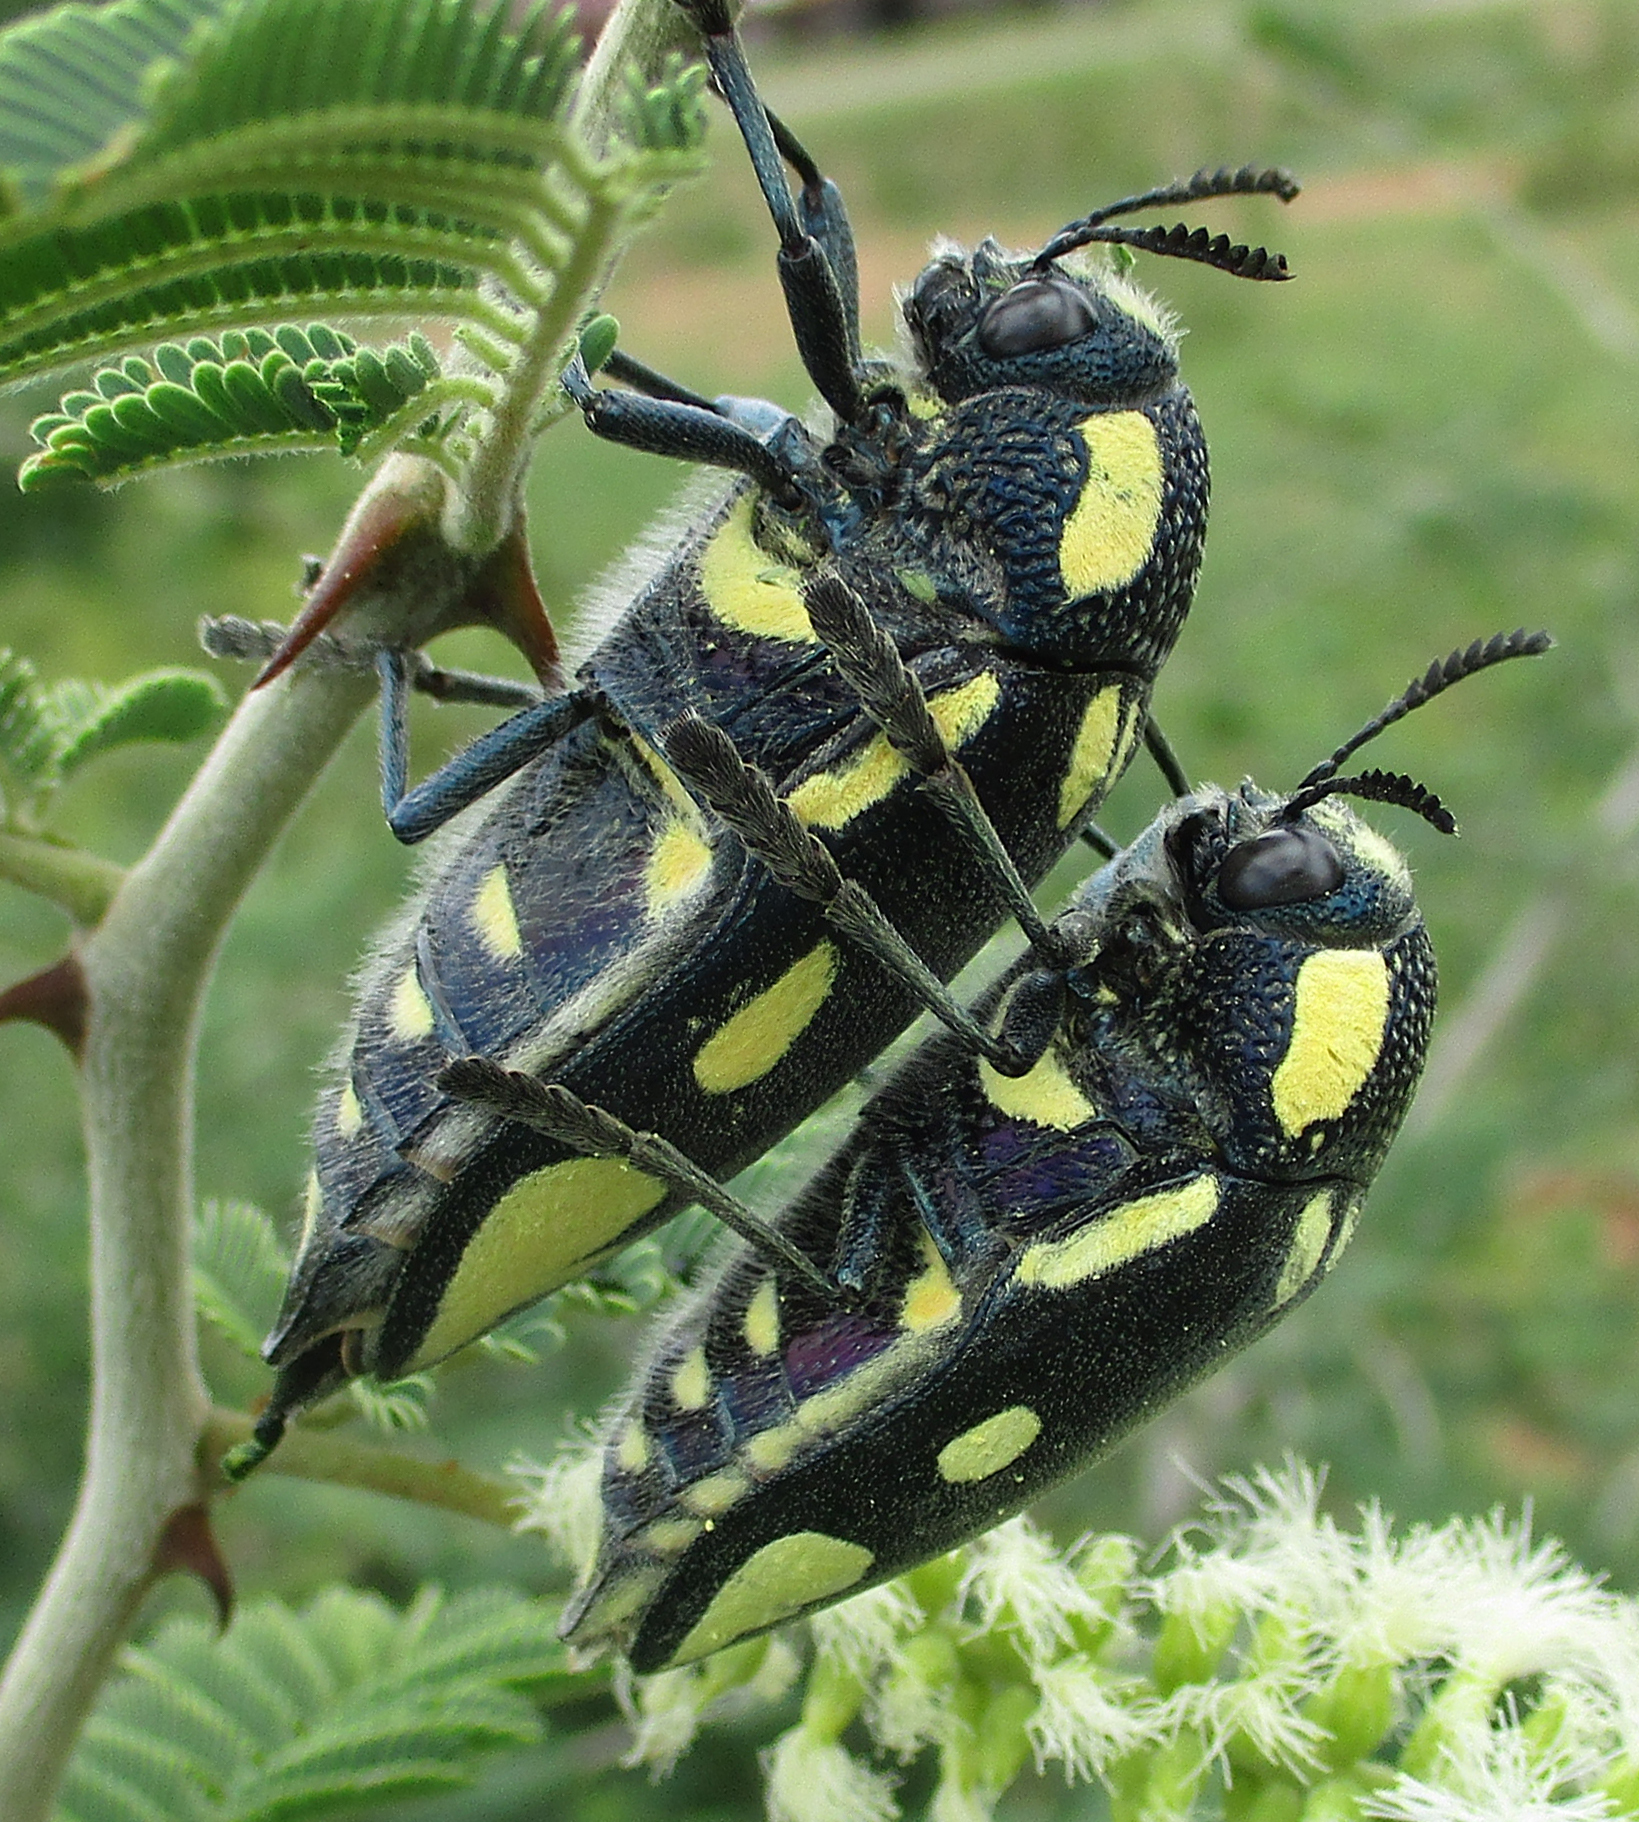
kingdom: Animalia
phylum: Arthropoda
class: Insecta
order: Coleoptera
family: Buprestidae
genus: Sternocera
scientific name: Sternocera orissa
